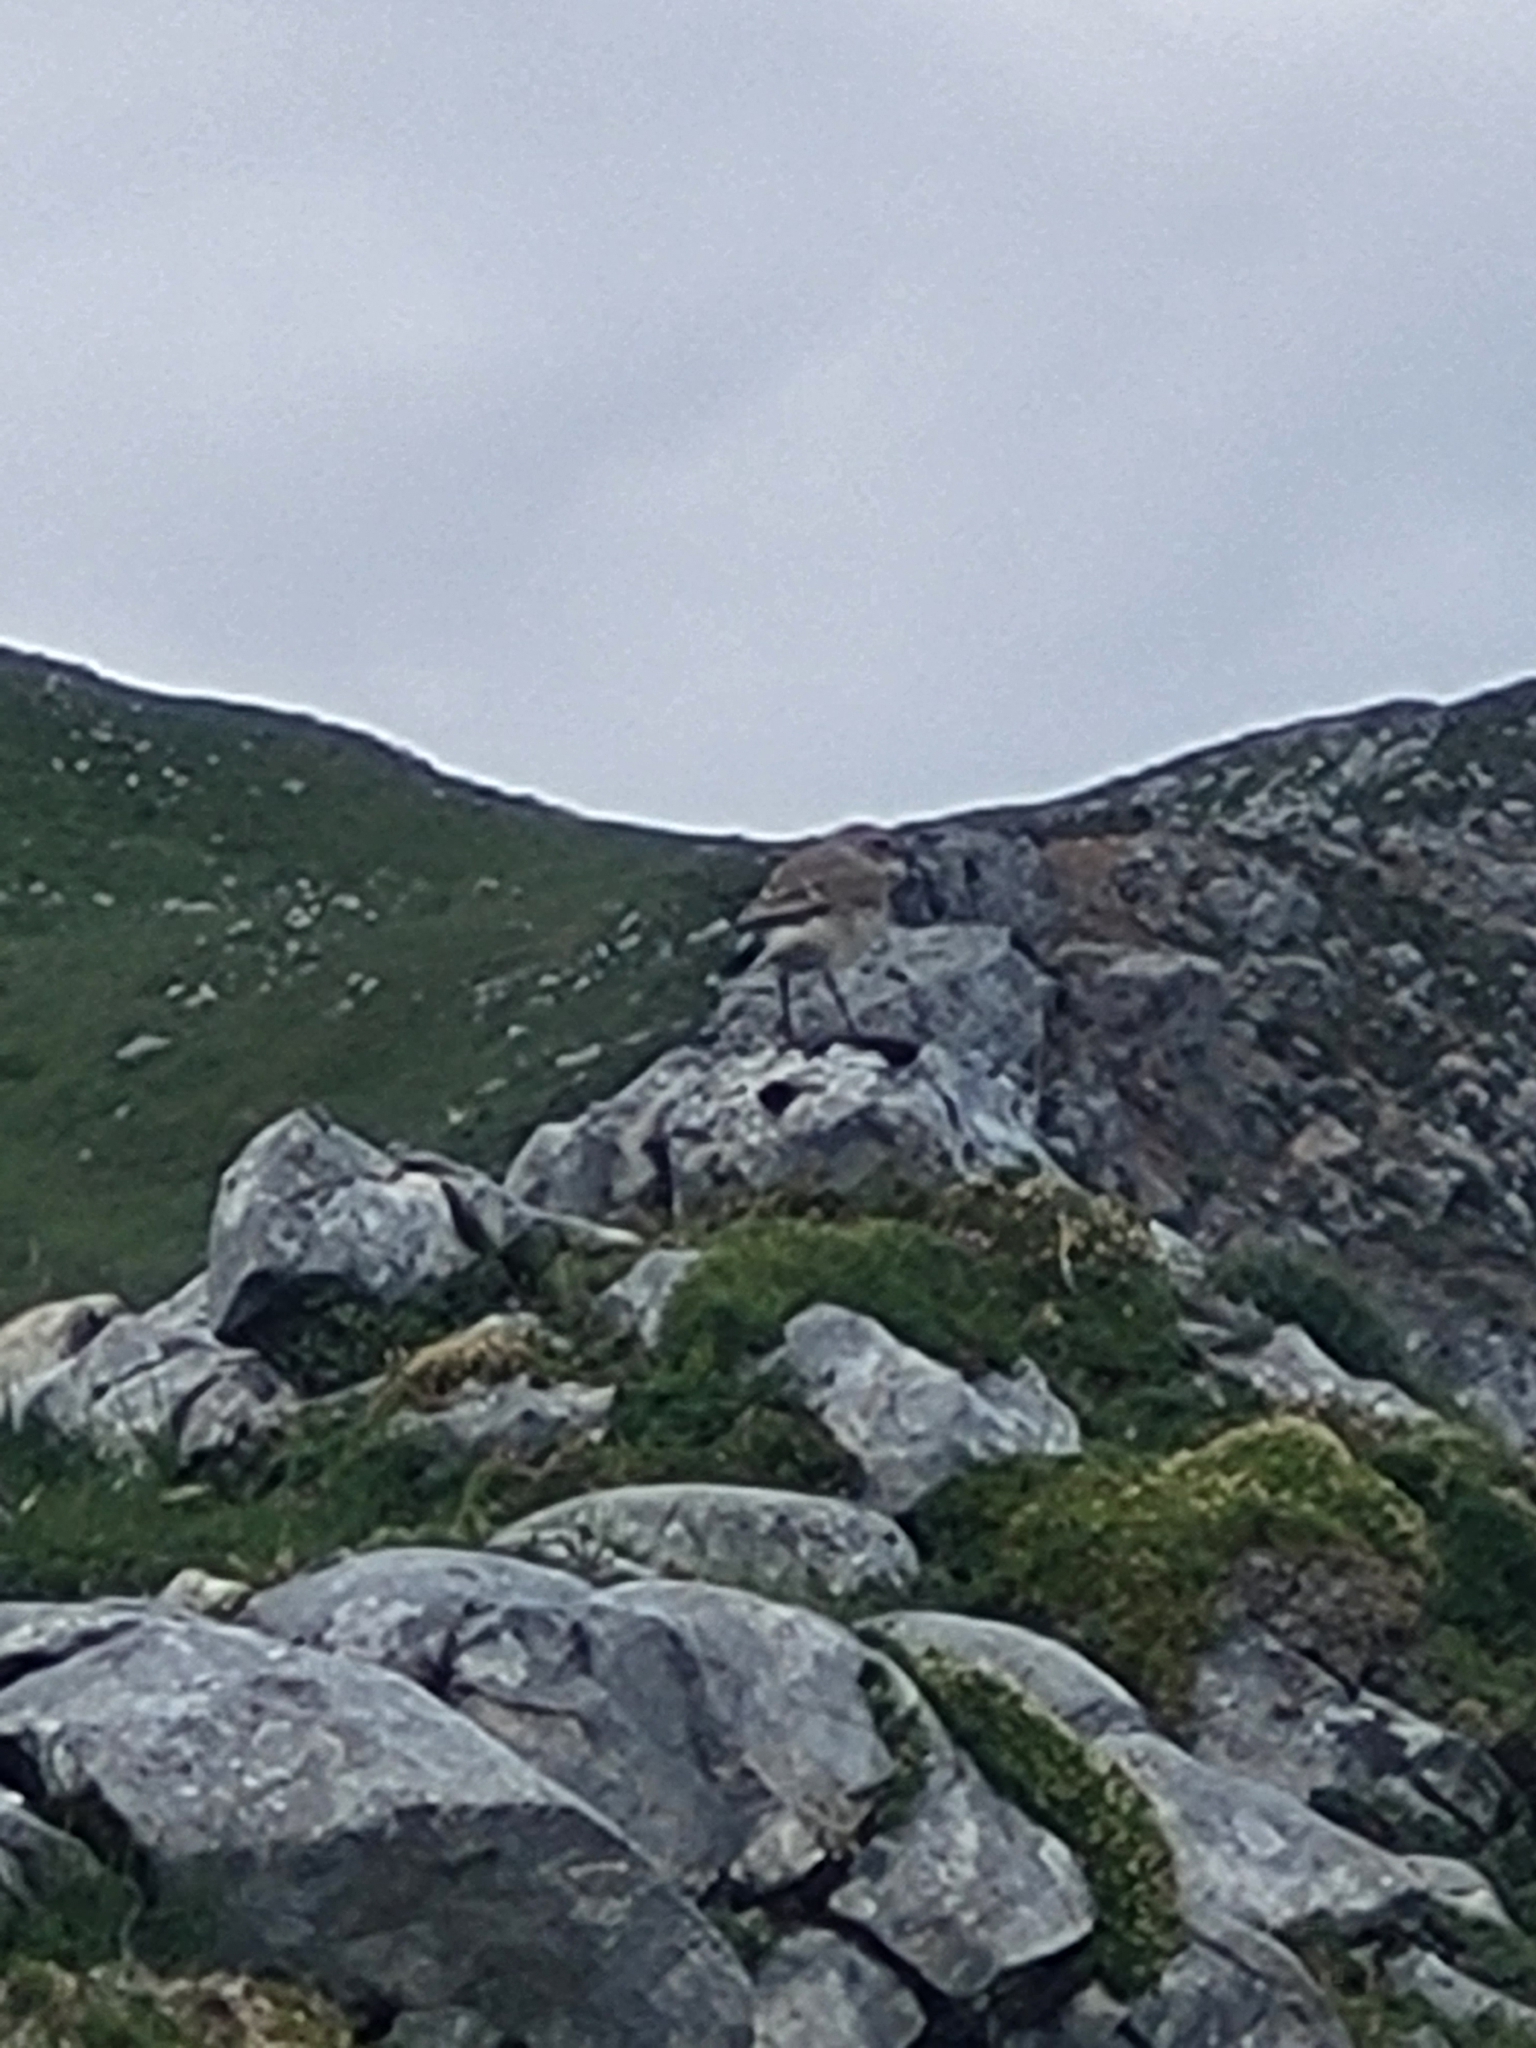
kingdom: Animalia
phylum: Chordata
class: Aves
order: Passeriformes
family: Muscicapidae
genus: Oenanthe
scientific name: Oenanthe oenanthe
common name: Northern wheatear
